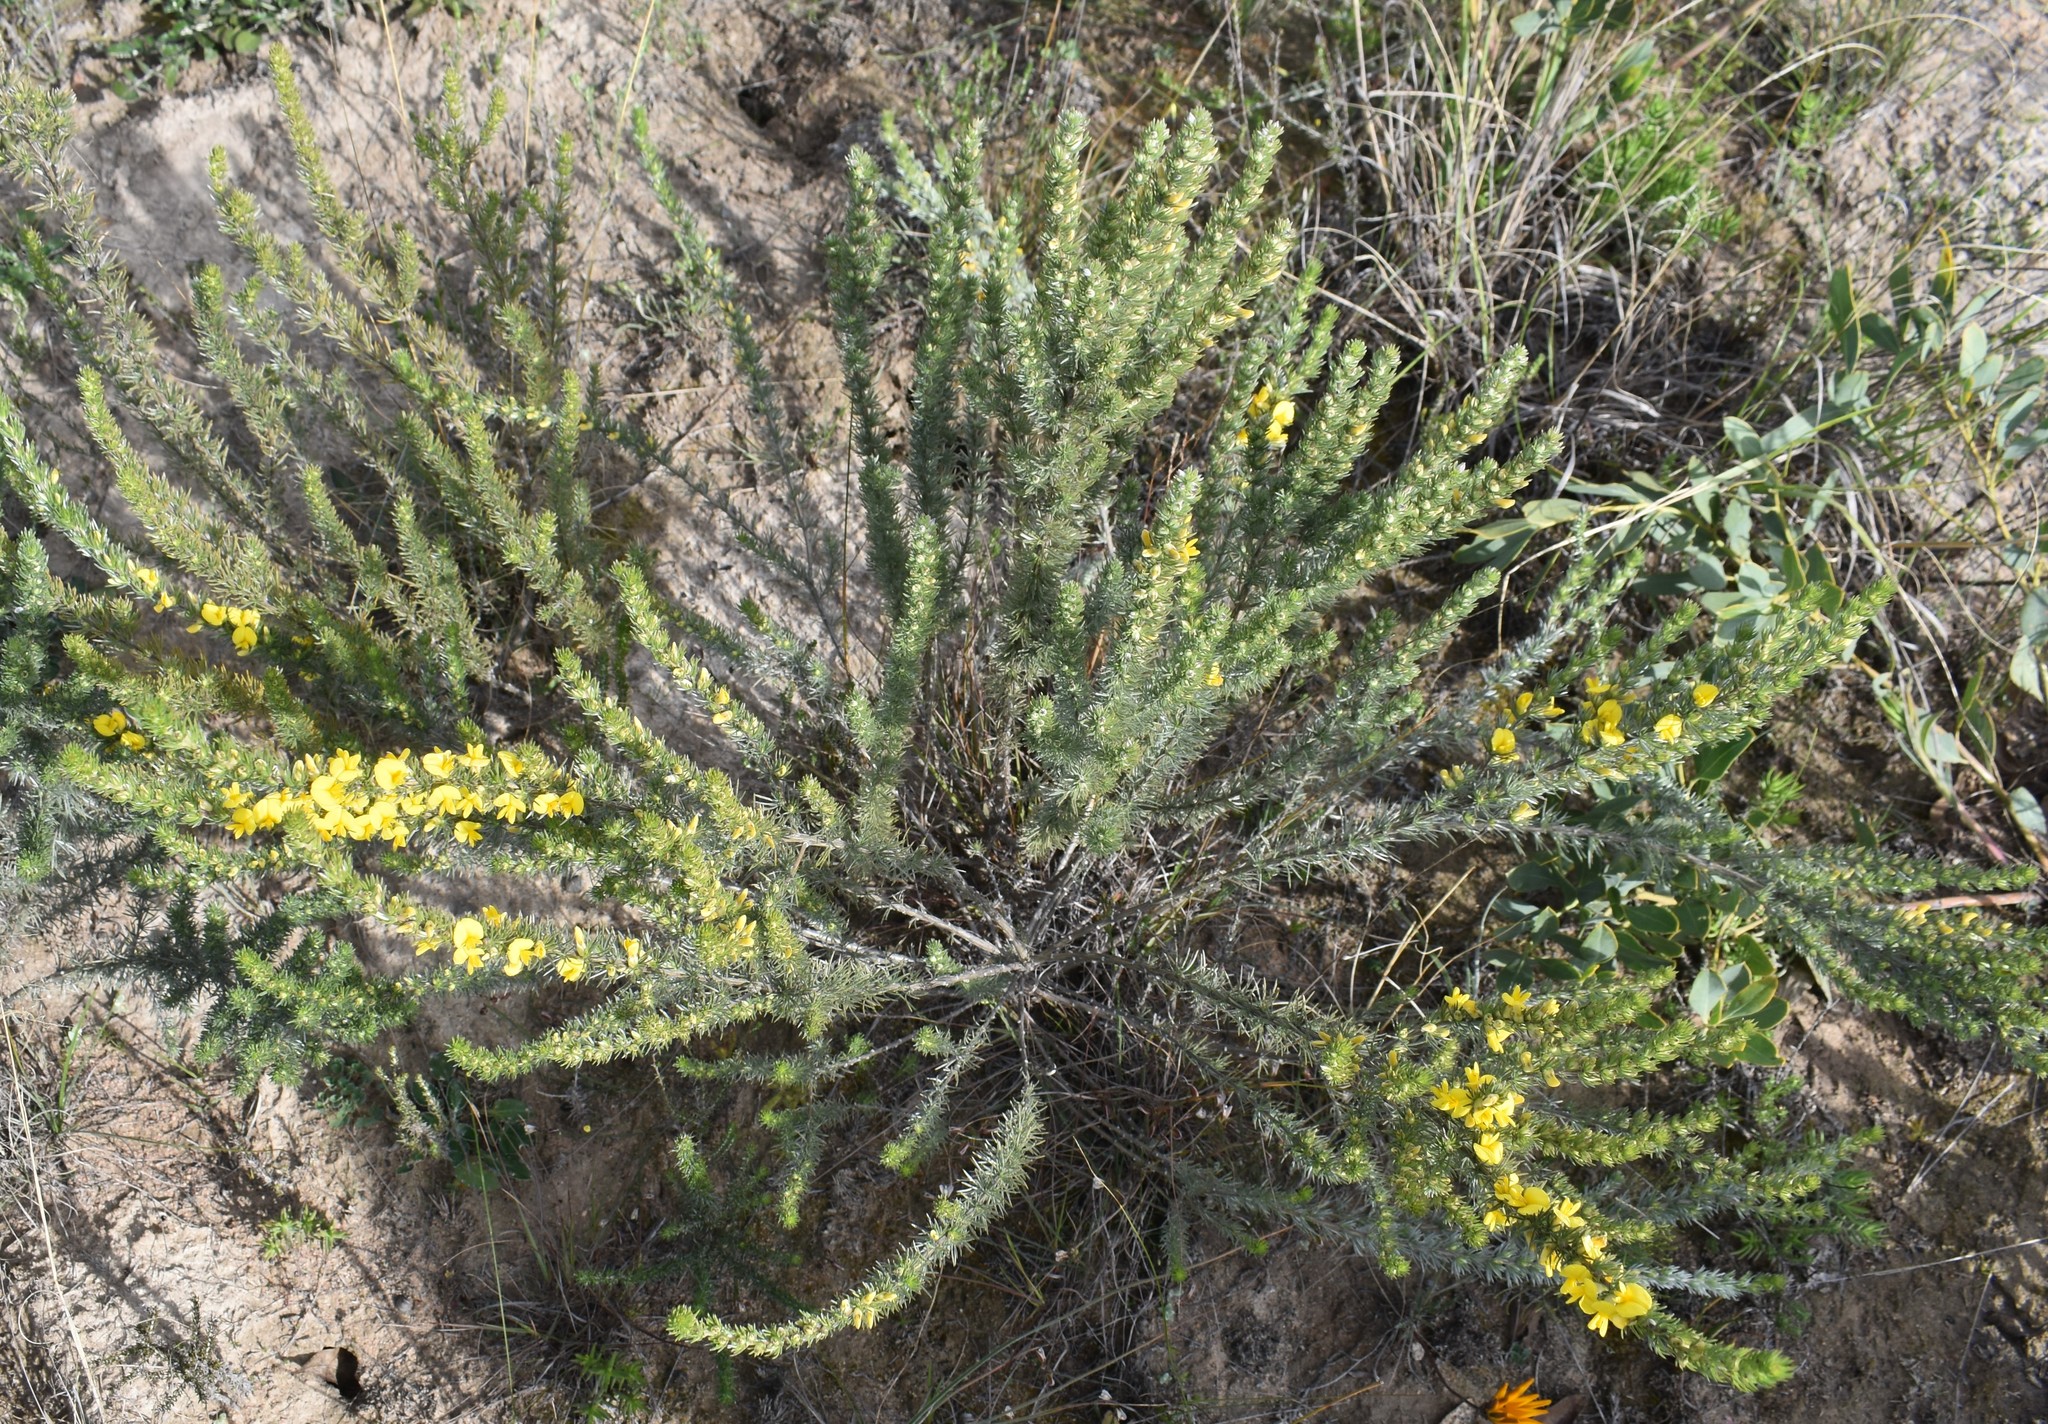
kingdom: Plantae
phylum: Tracheophyta
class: Magnoliopsida
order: Fabales
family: Fabaceae
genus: Aspalathus
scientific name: Aspalathus glabrescens
